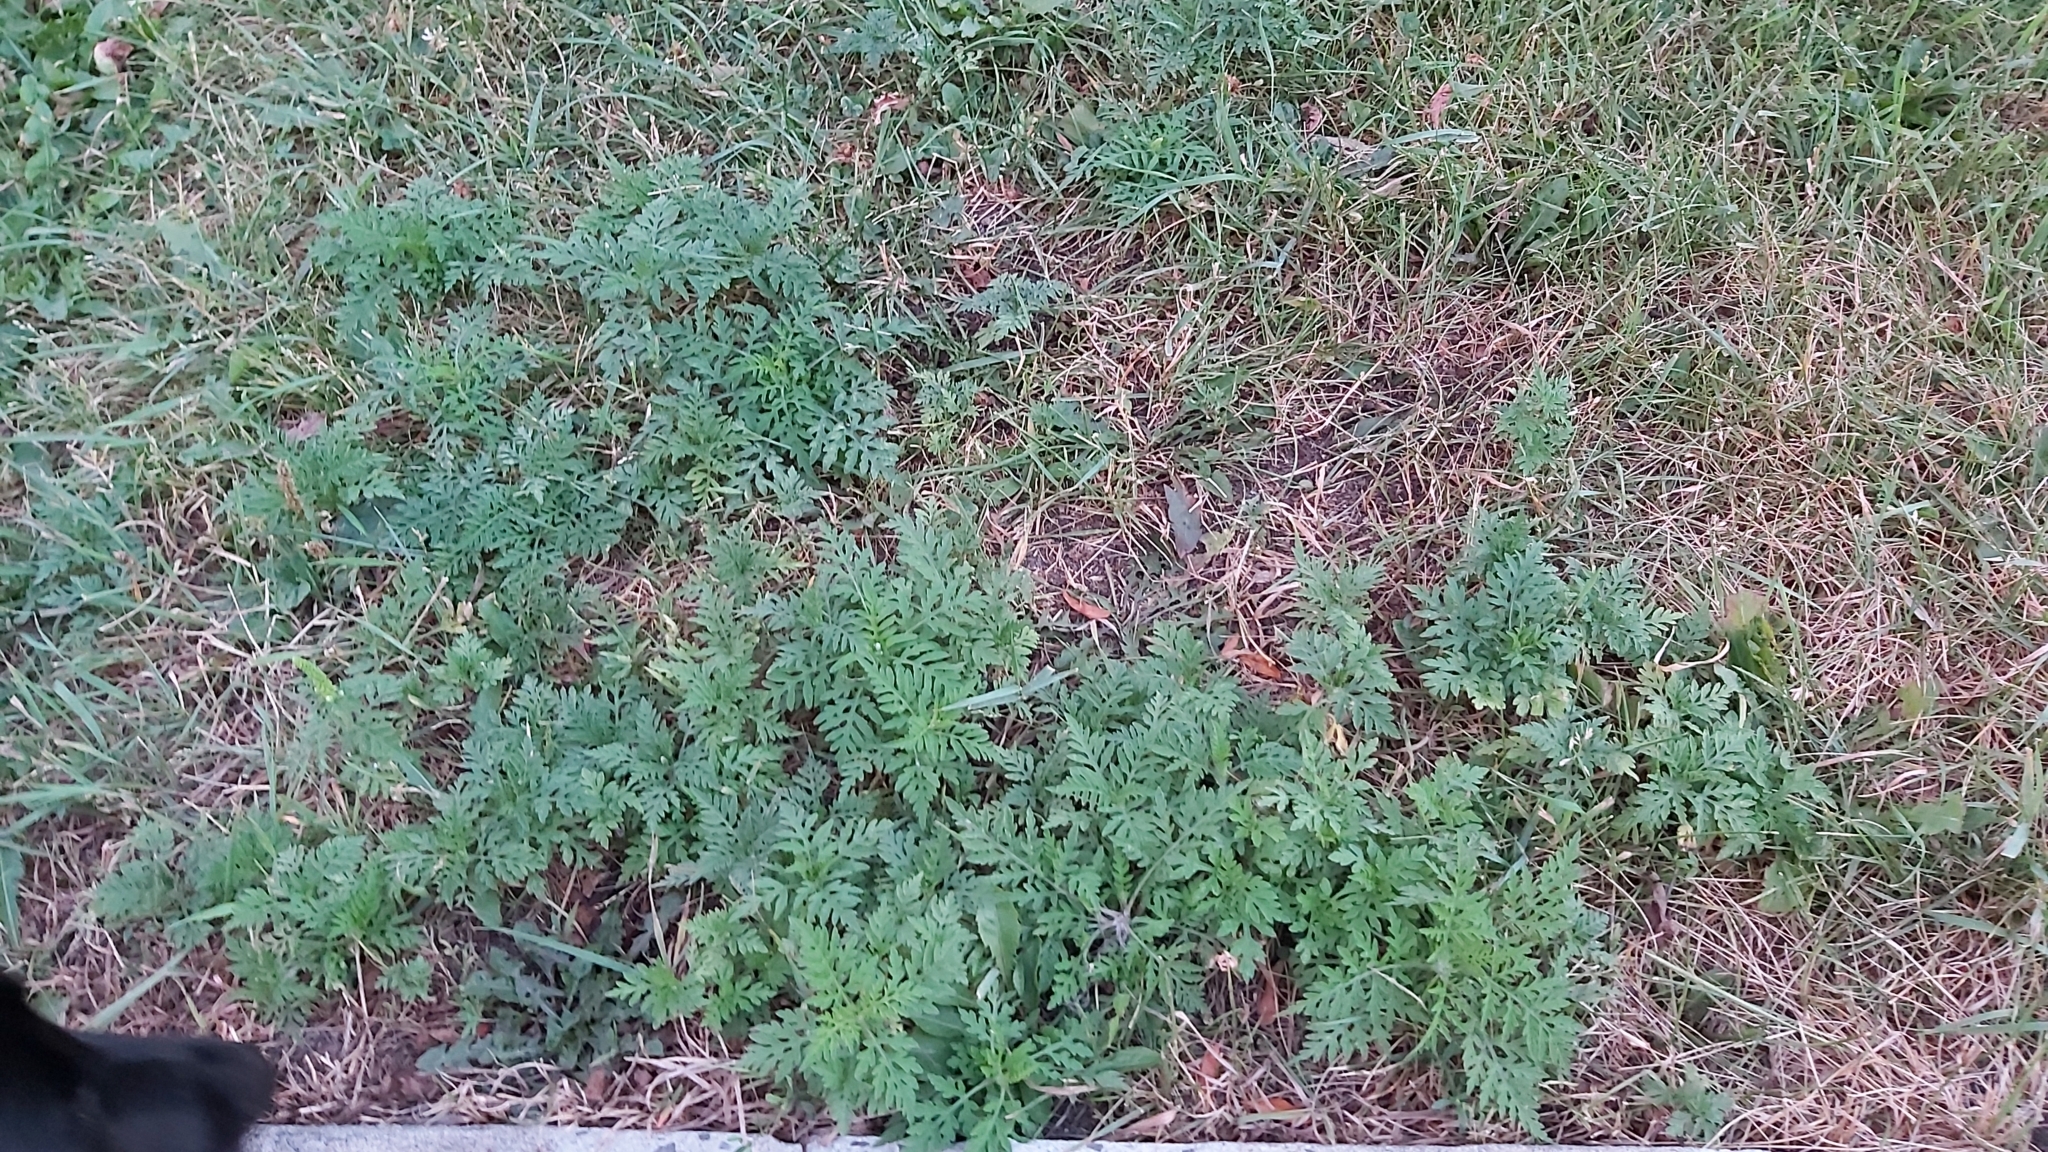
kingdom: Plantae
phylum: Tracheophyta
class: Magnoliopsida
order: Asterales
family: Asteraceae
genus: Ambrosia
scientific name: Ambrosia artemisiifolia
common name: Annual ragweed
